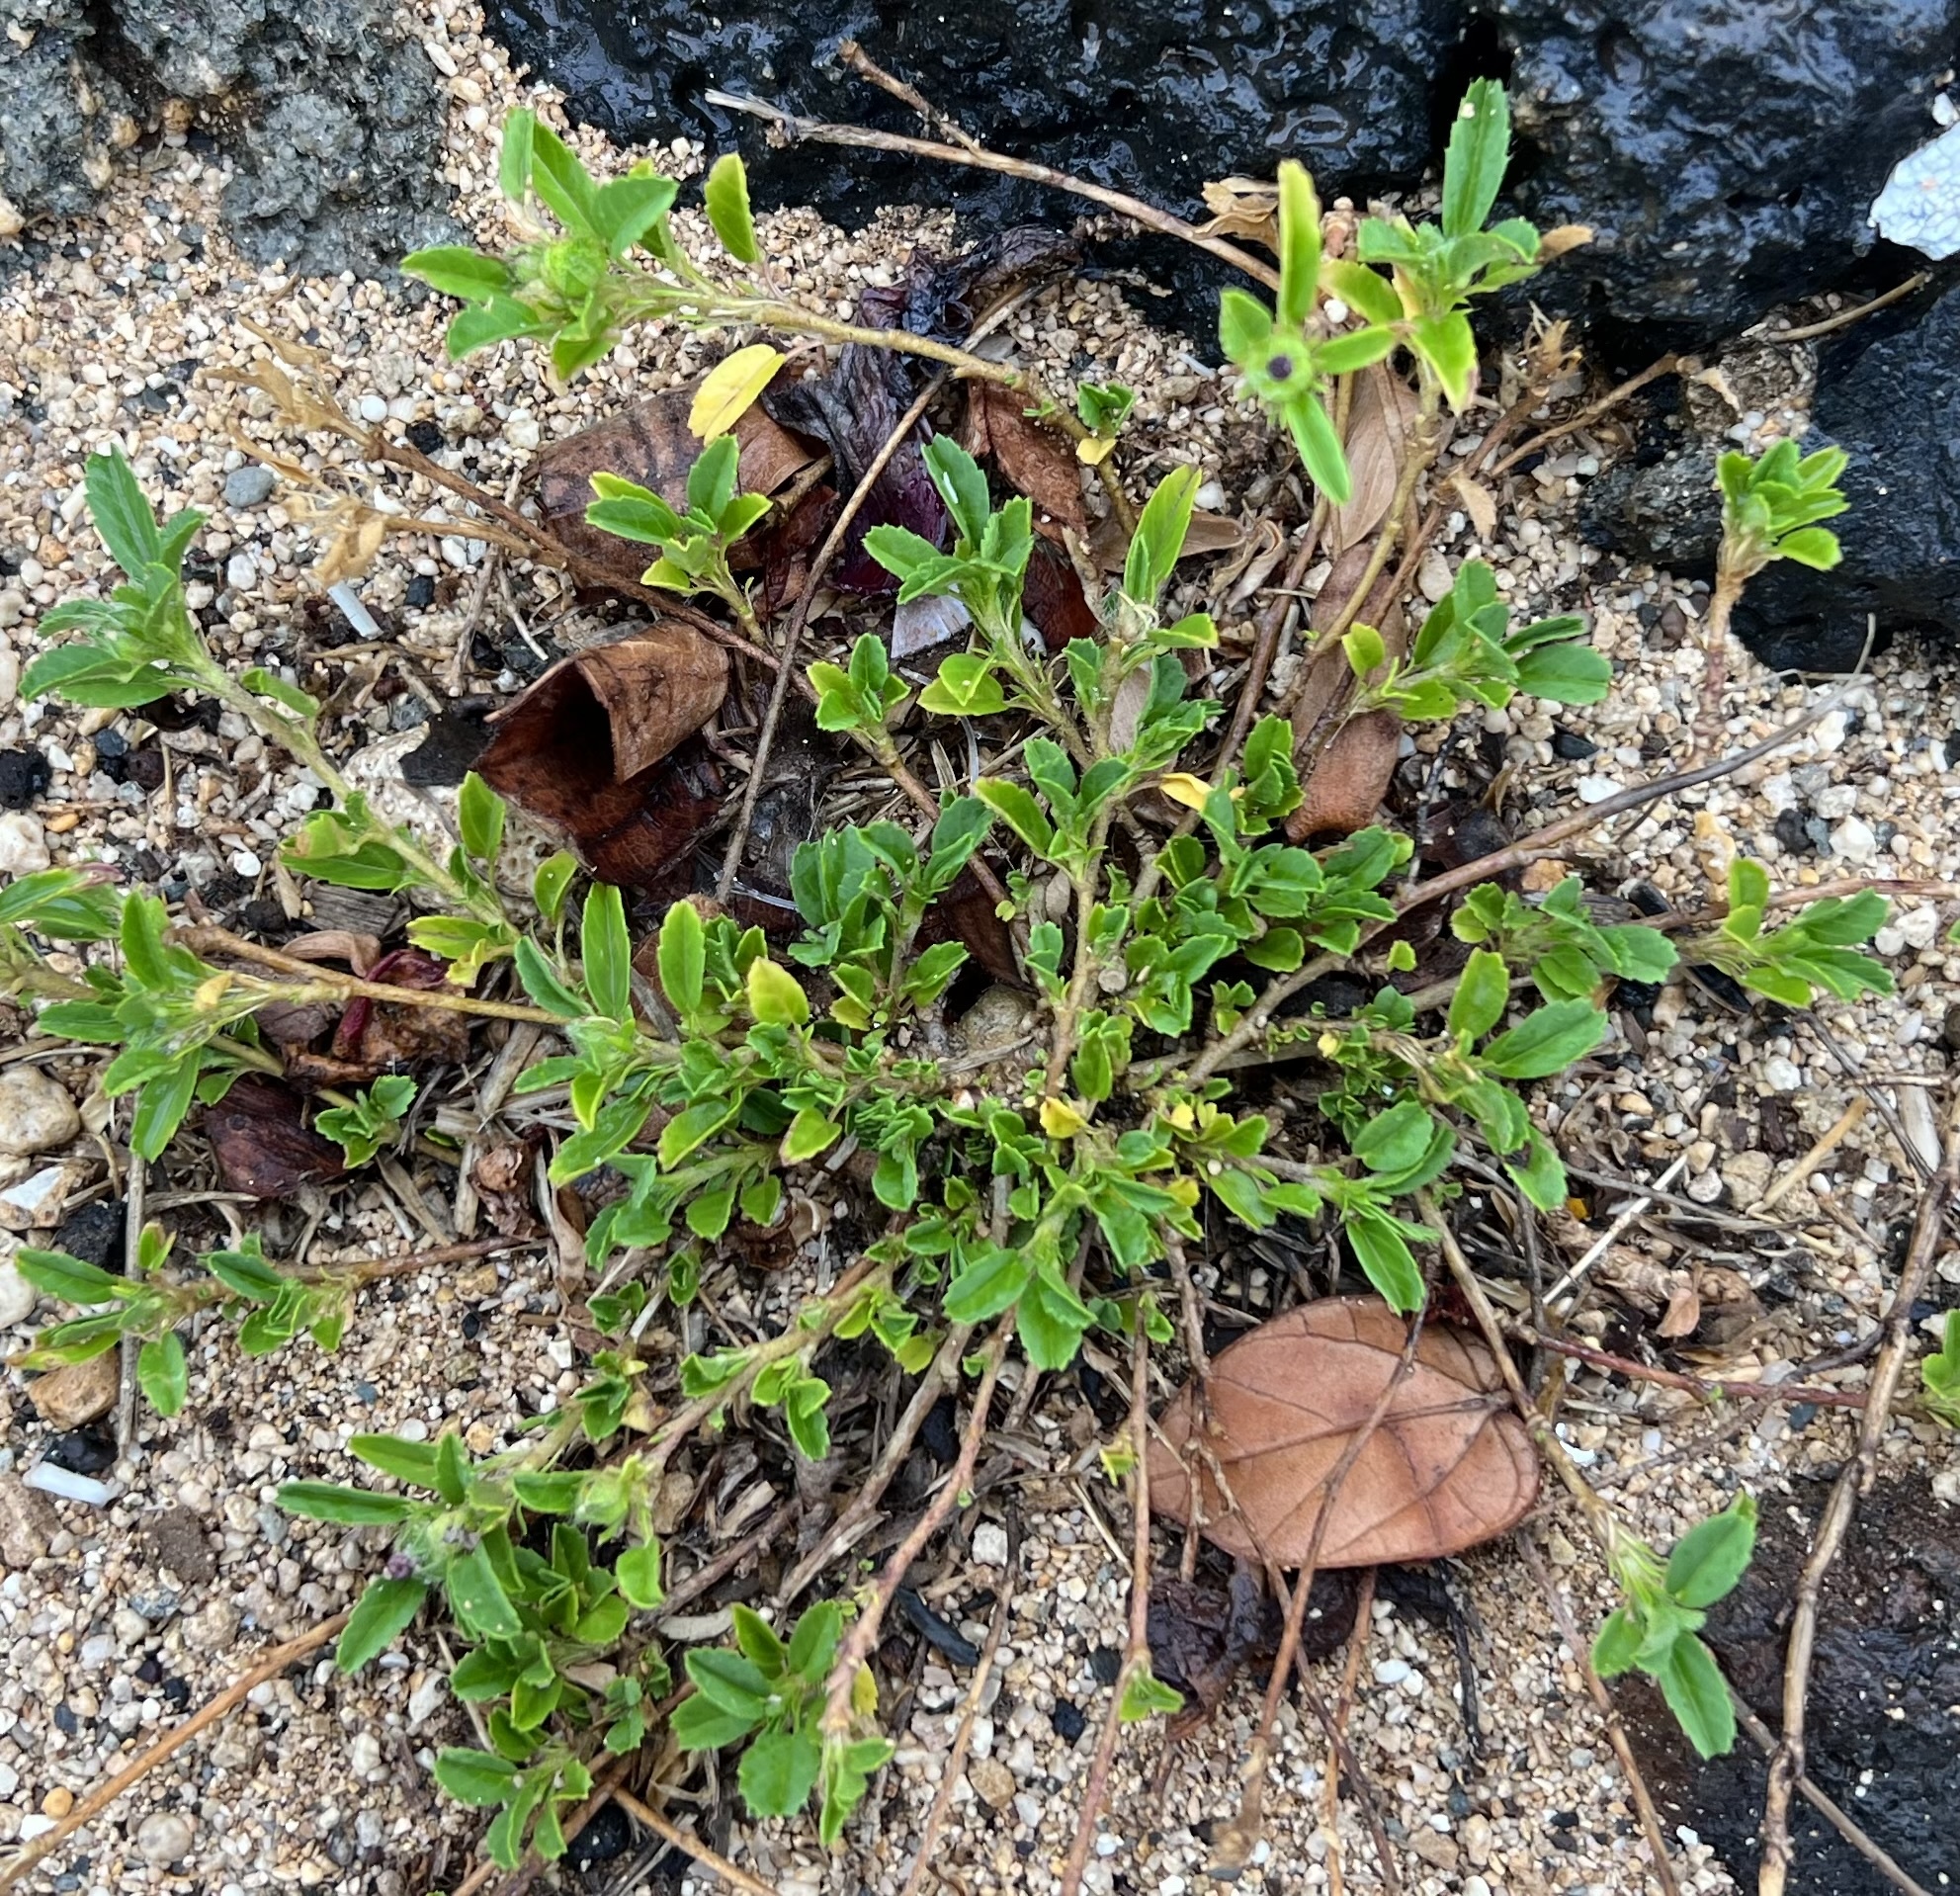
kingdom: Plantae
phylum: Tracheophyta
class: Magnoliopsida
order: Malvales
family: Malvaceae
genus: Sida
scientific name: Sida ciliaris
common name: Bracted fanpetals
